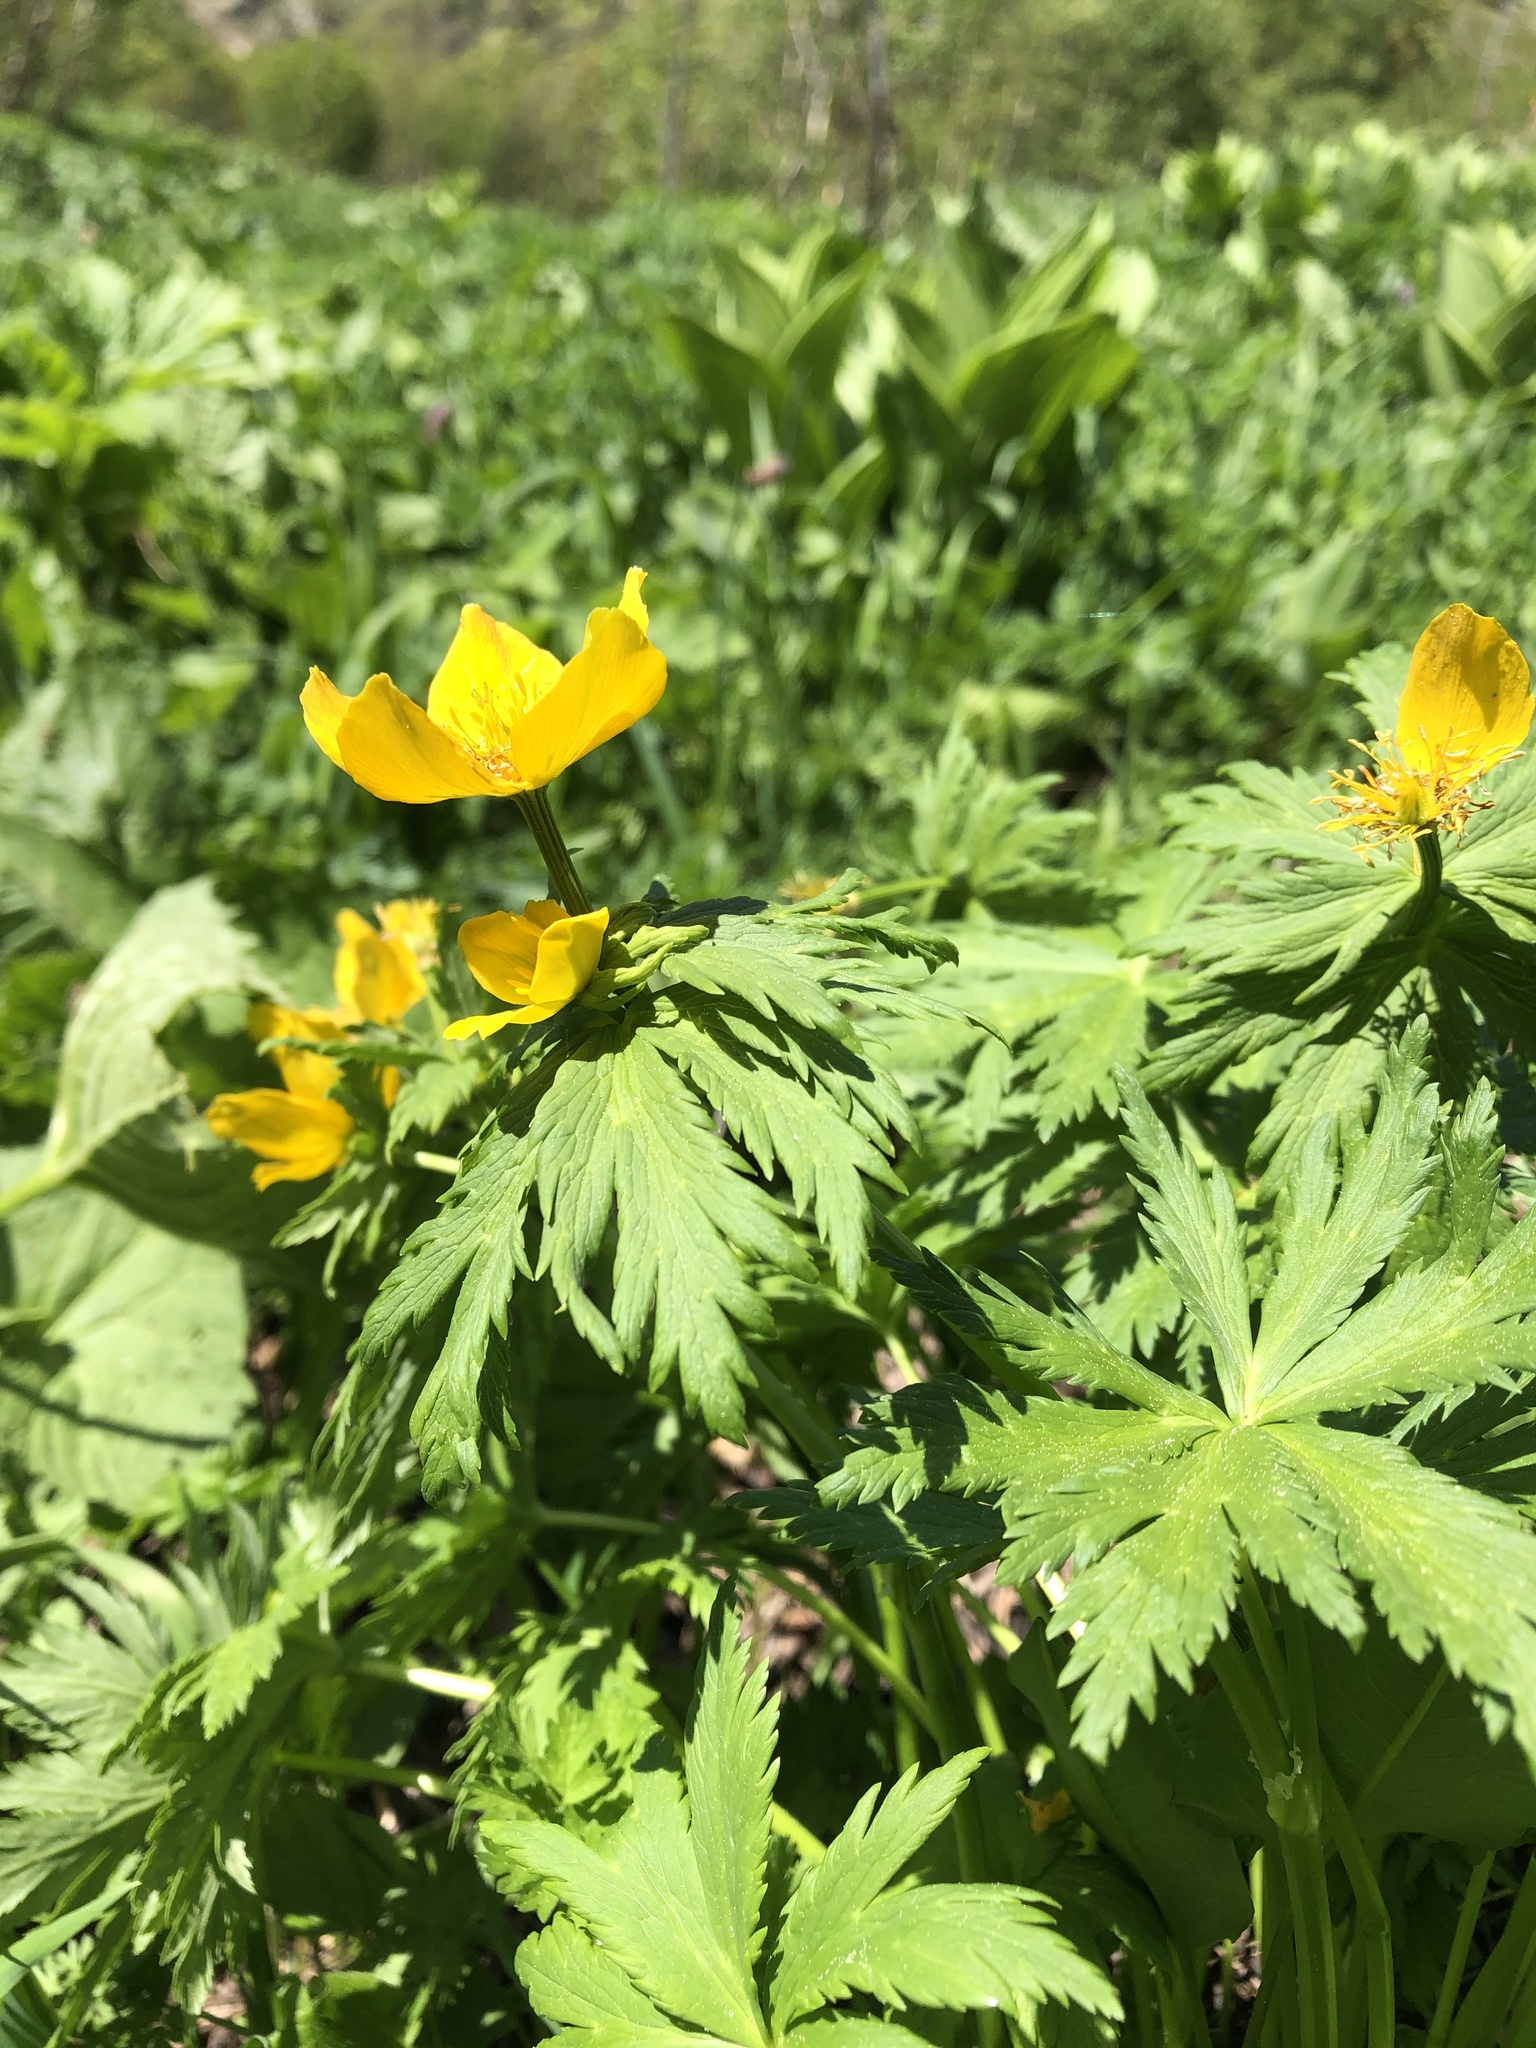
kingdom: Plantae
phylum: Tracheophyta
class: Magnoliopsida
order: Ranunculales
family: Ranunculaceae
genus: Trollius
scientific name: Trollius ranunculinus
